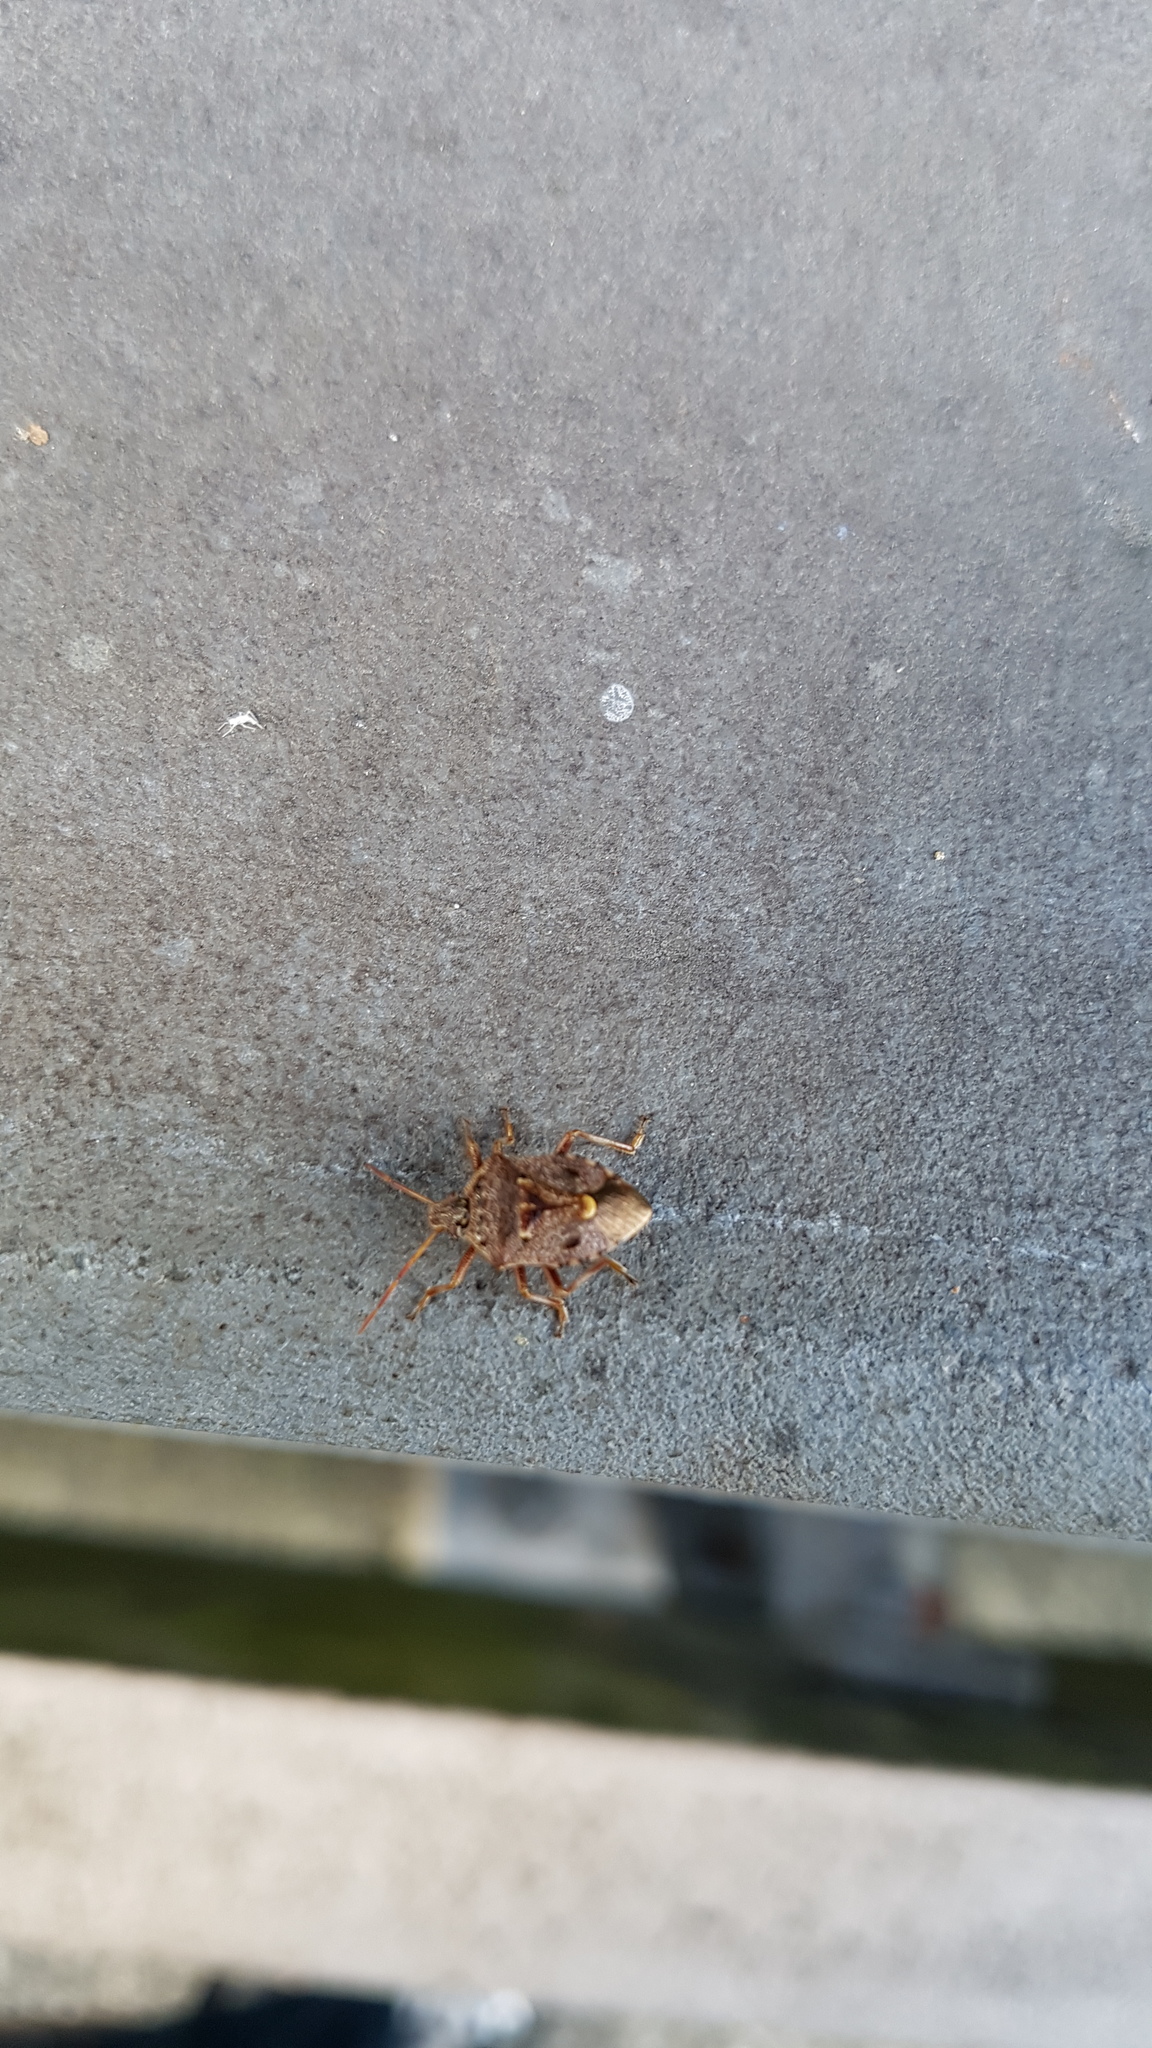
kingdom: Animalia
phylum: Arthropoda
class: Insecta
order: Hemiptera
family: Pentatomidae
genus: Cermatulus
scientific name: Cermatulus nasalis
